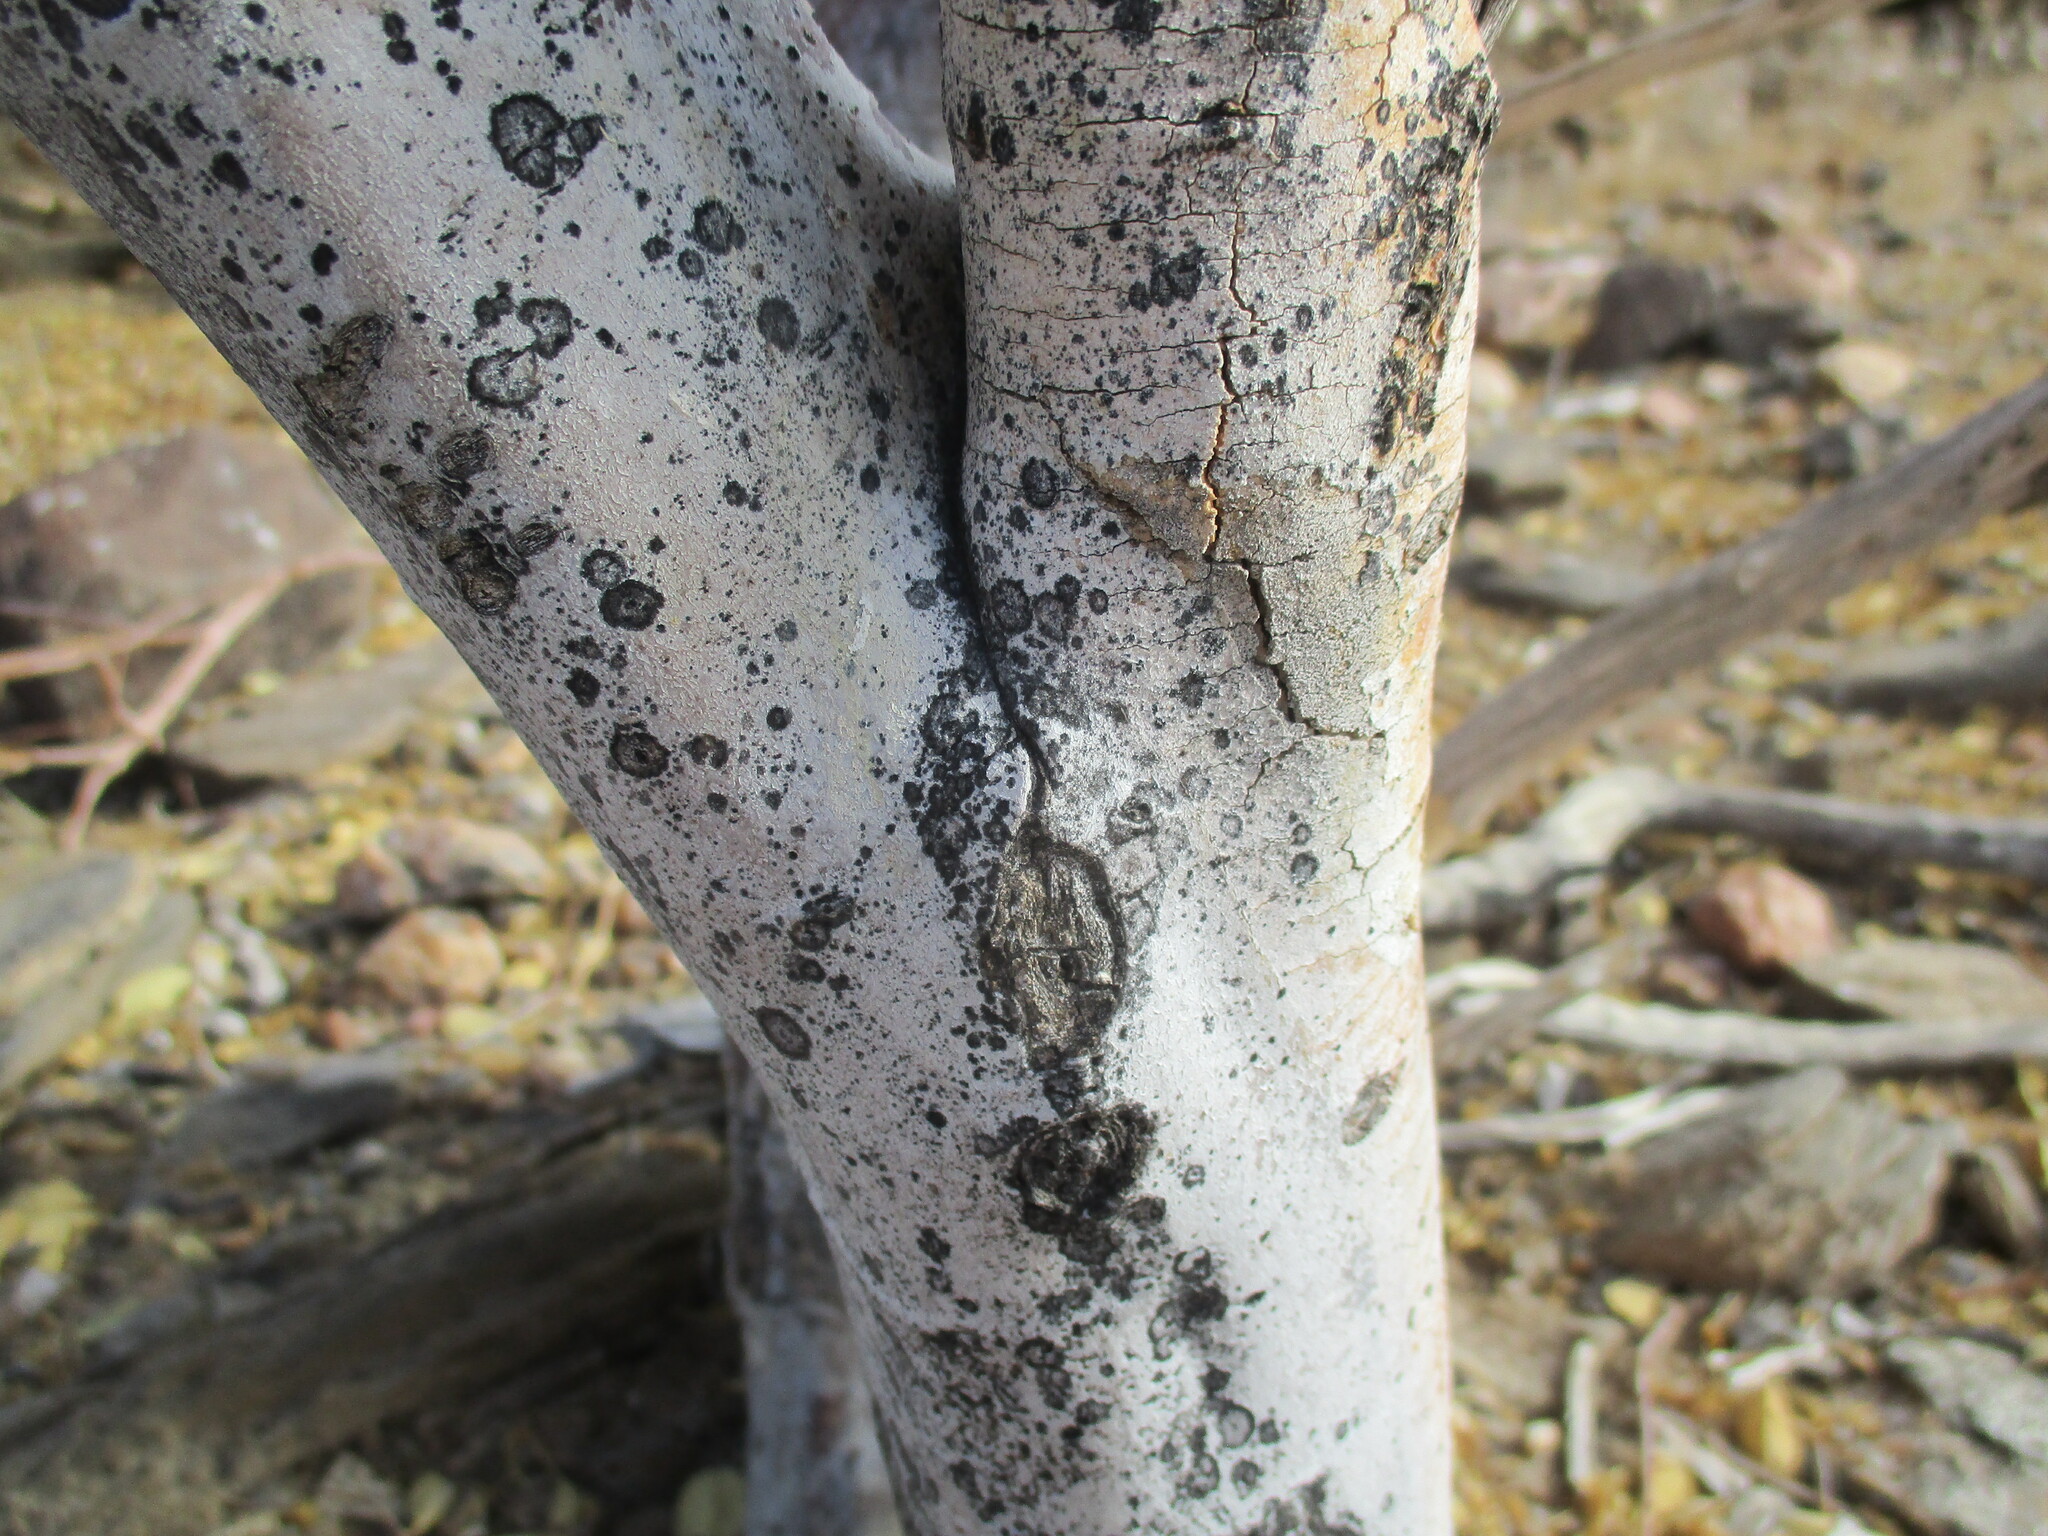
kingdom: Plantae
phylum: Tracheophyta
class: Magnoliopsida
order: Brassicales
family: Capparaceae
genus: Maerua
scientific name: Maerua schinzii
